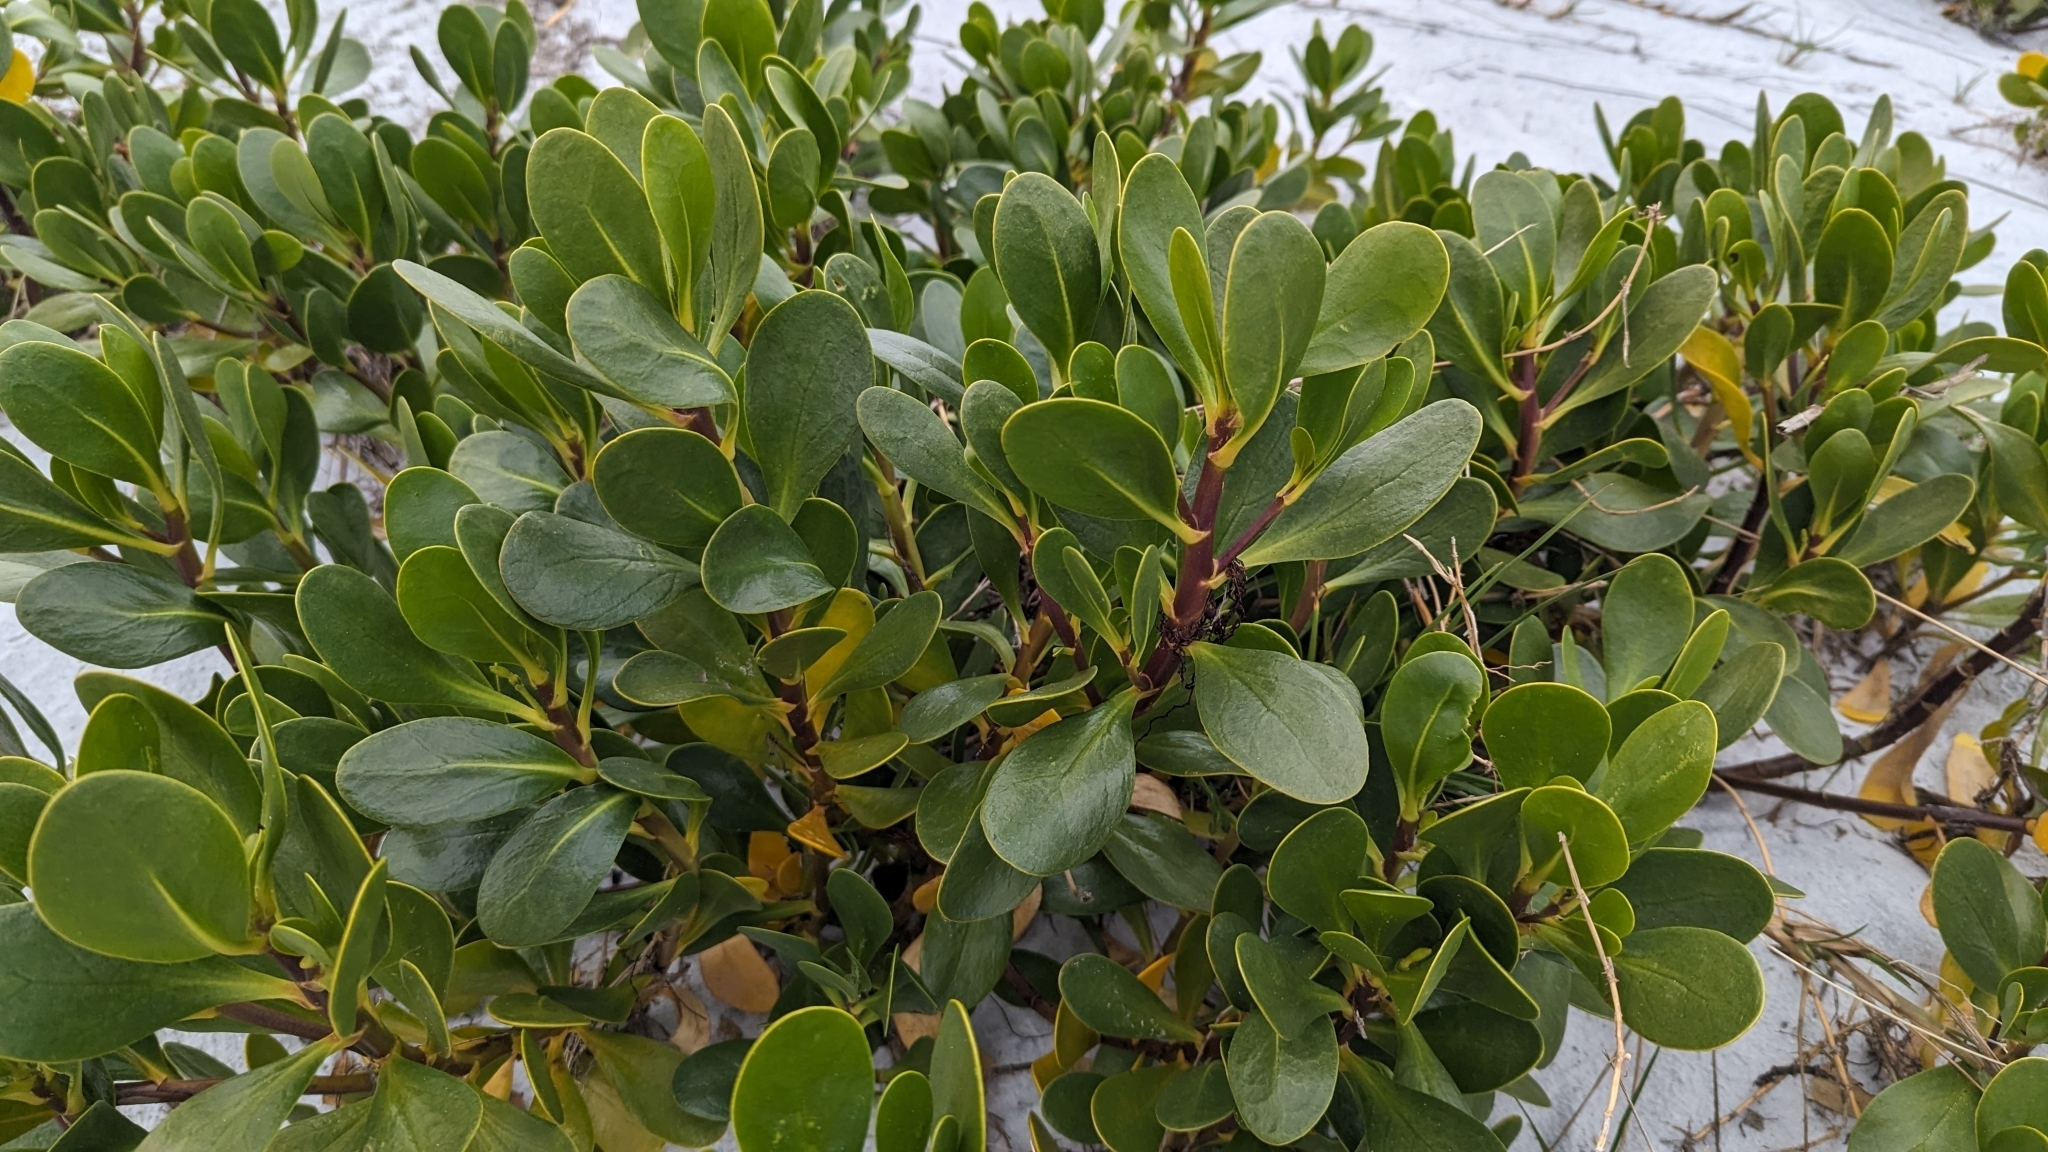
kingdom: Plantae
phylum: Tracheophyta
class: Magnoliopsida
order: Asterales
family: Goodeniaceae
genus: Scaevola
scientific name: Scaevola plumieri
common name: Gull feed
